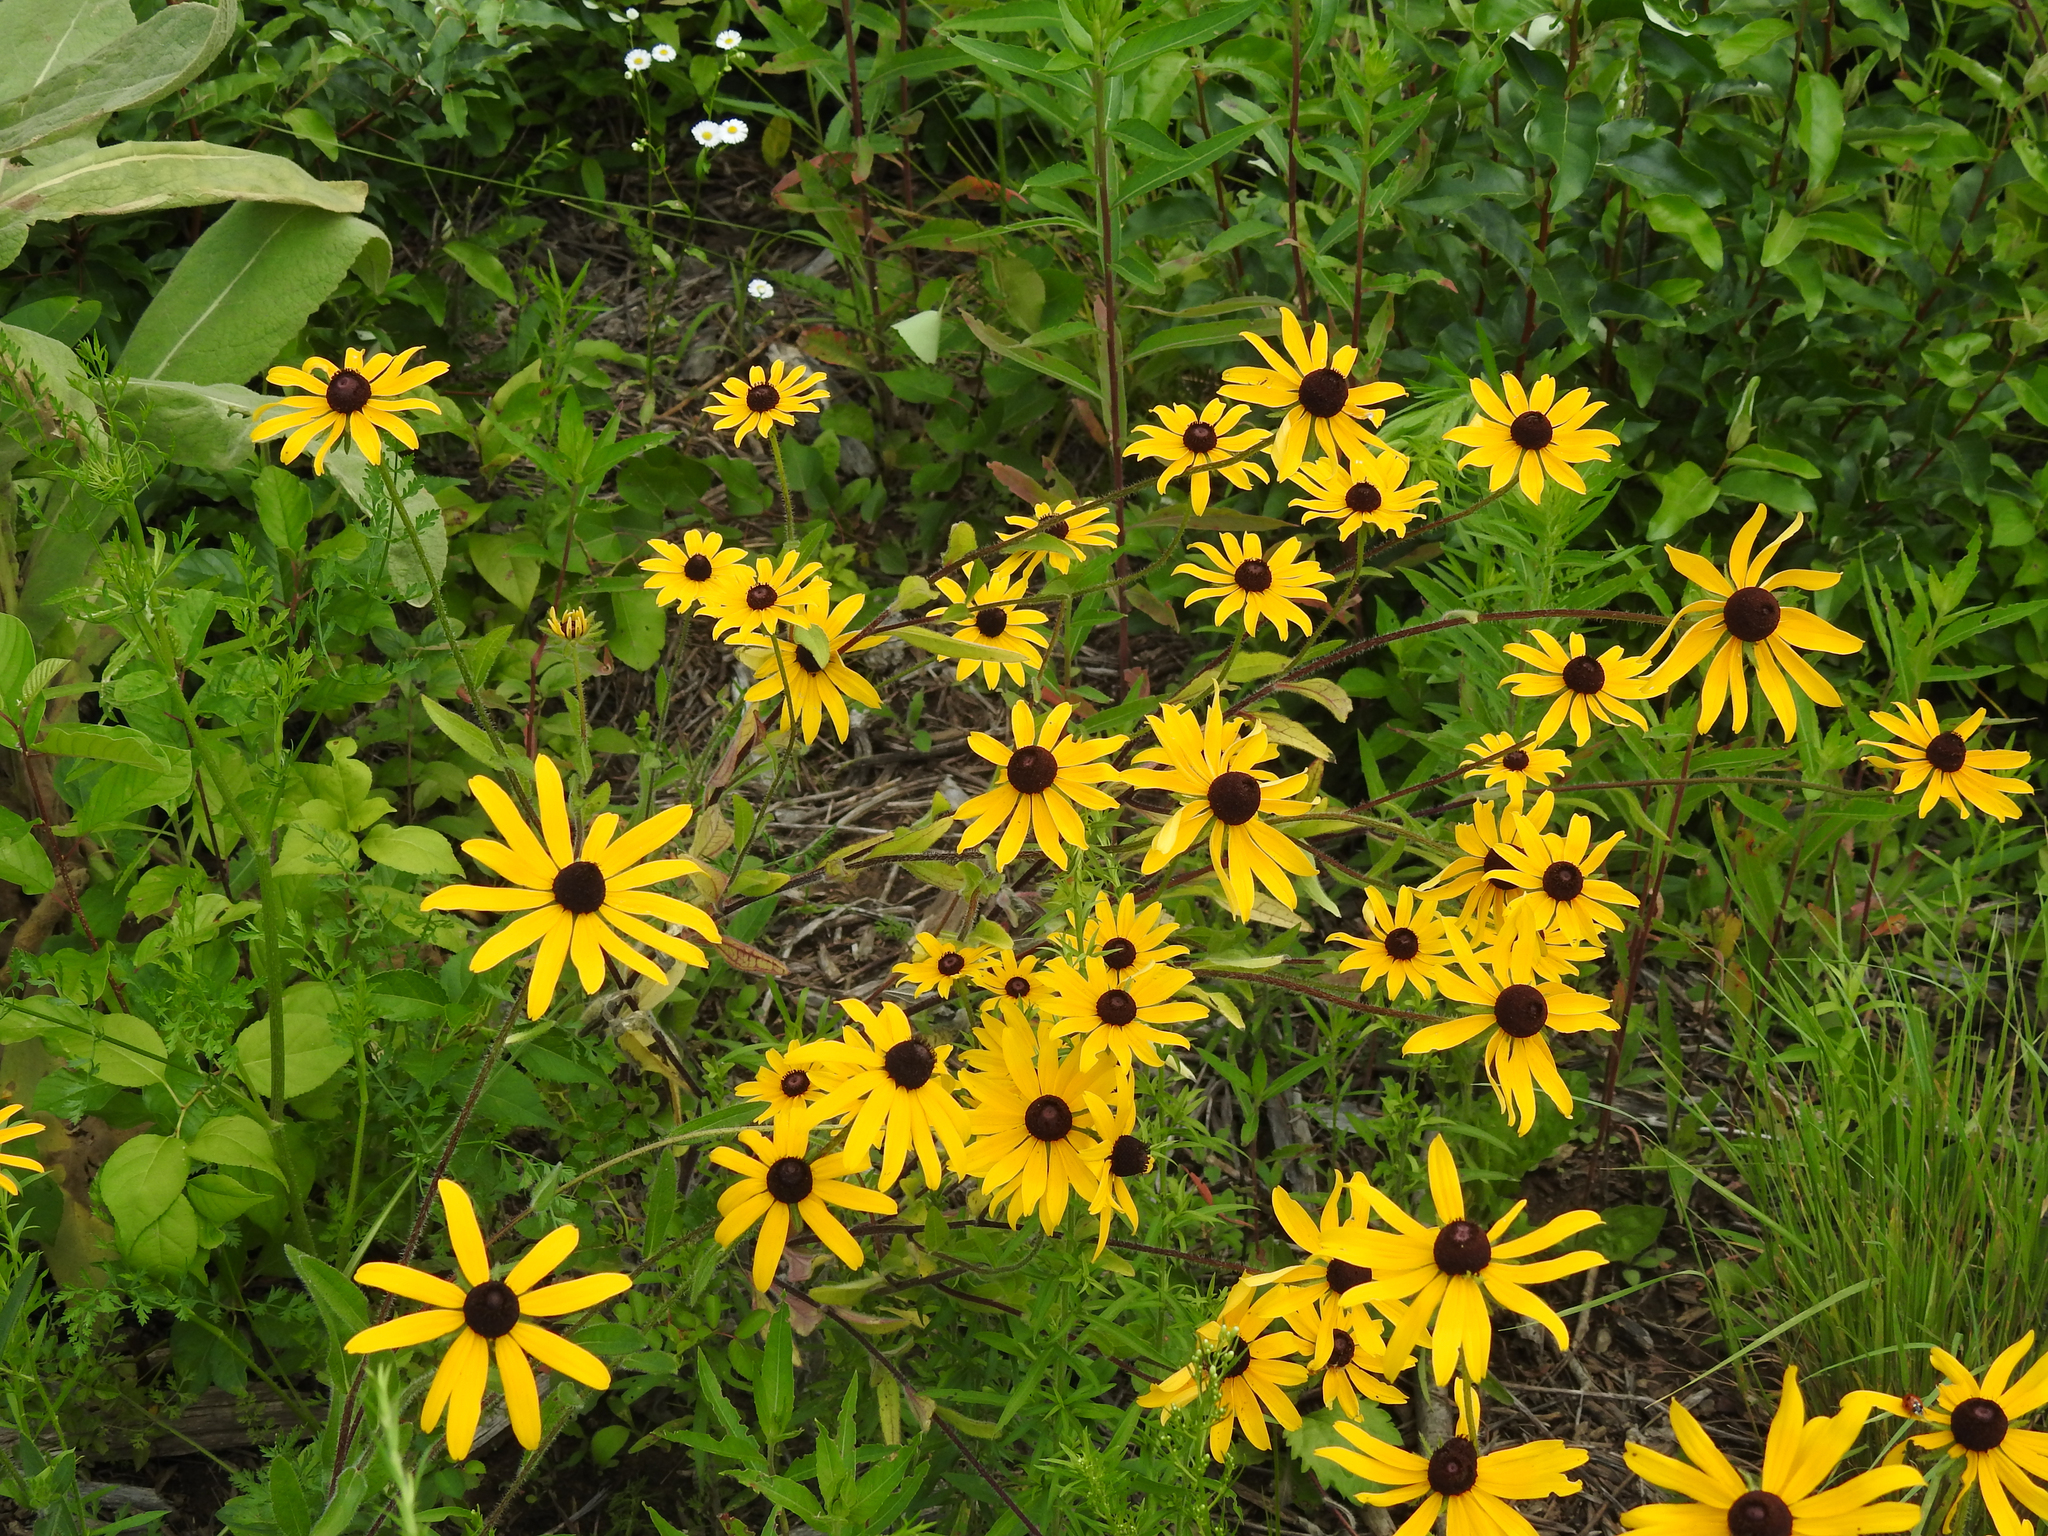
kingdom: Plantae
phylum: Tracheophyta
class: Magnoliopsida
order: Asterales
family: Asteraceae
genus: Rudbeckia
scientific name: Rudbeckia hirta
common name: Black-eyed-susan
